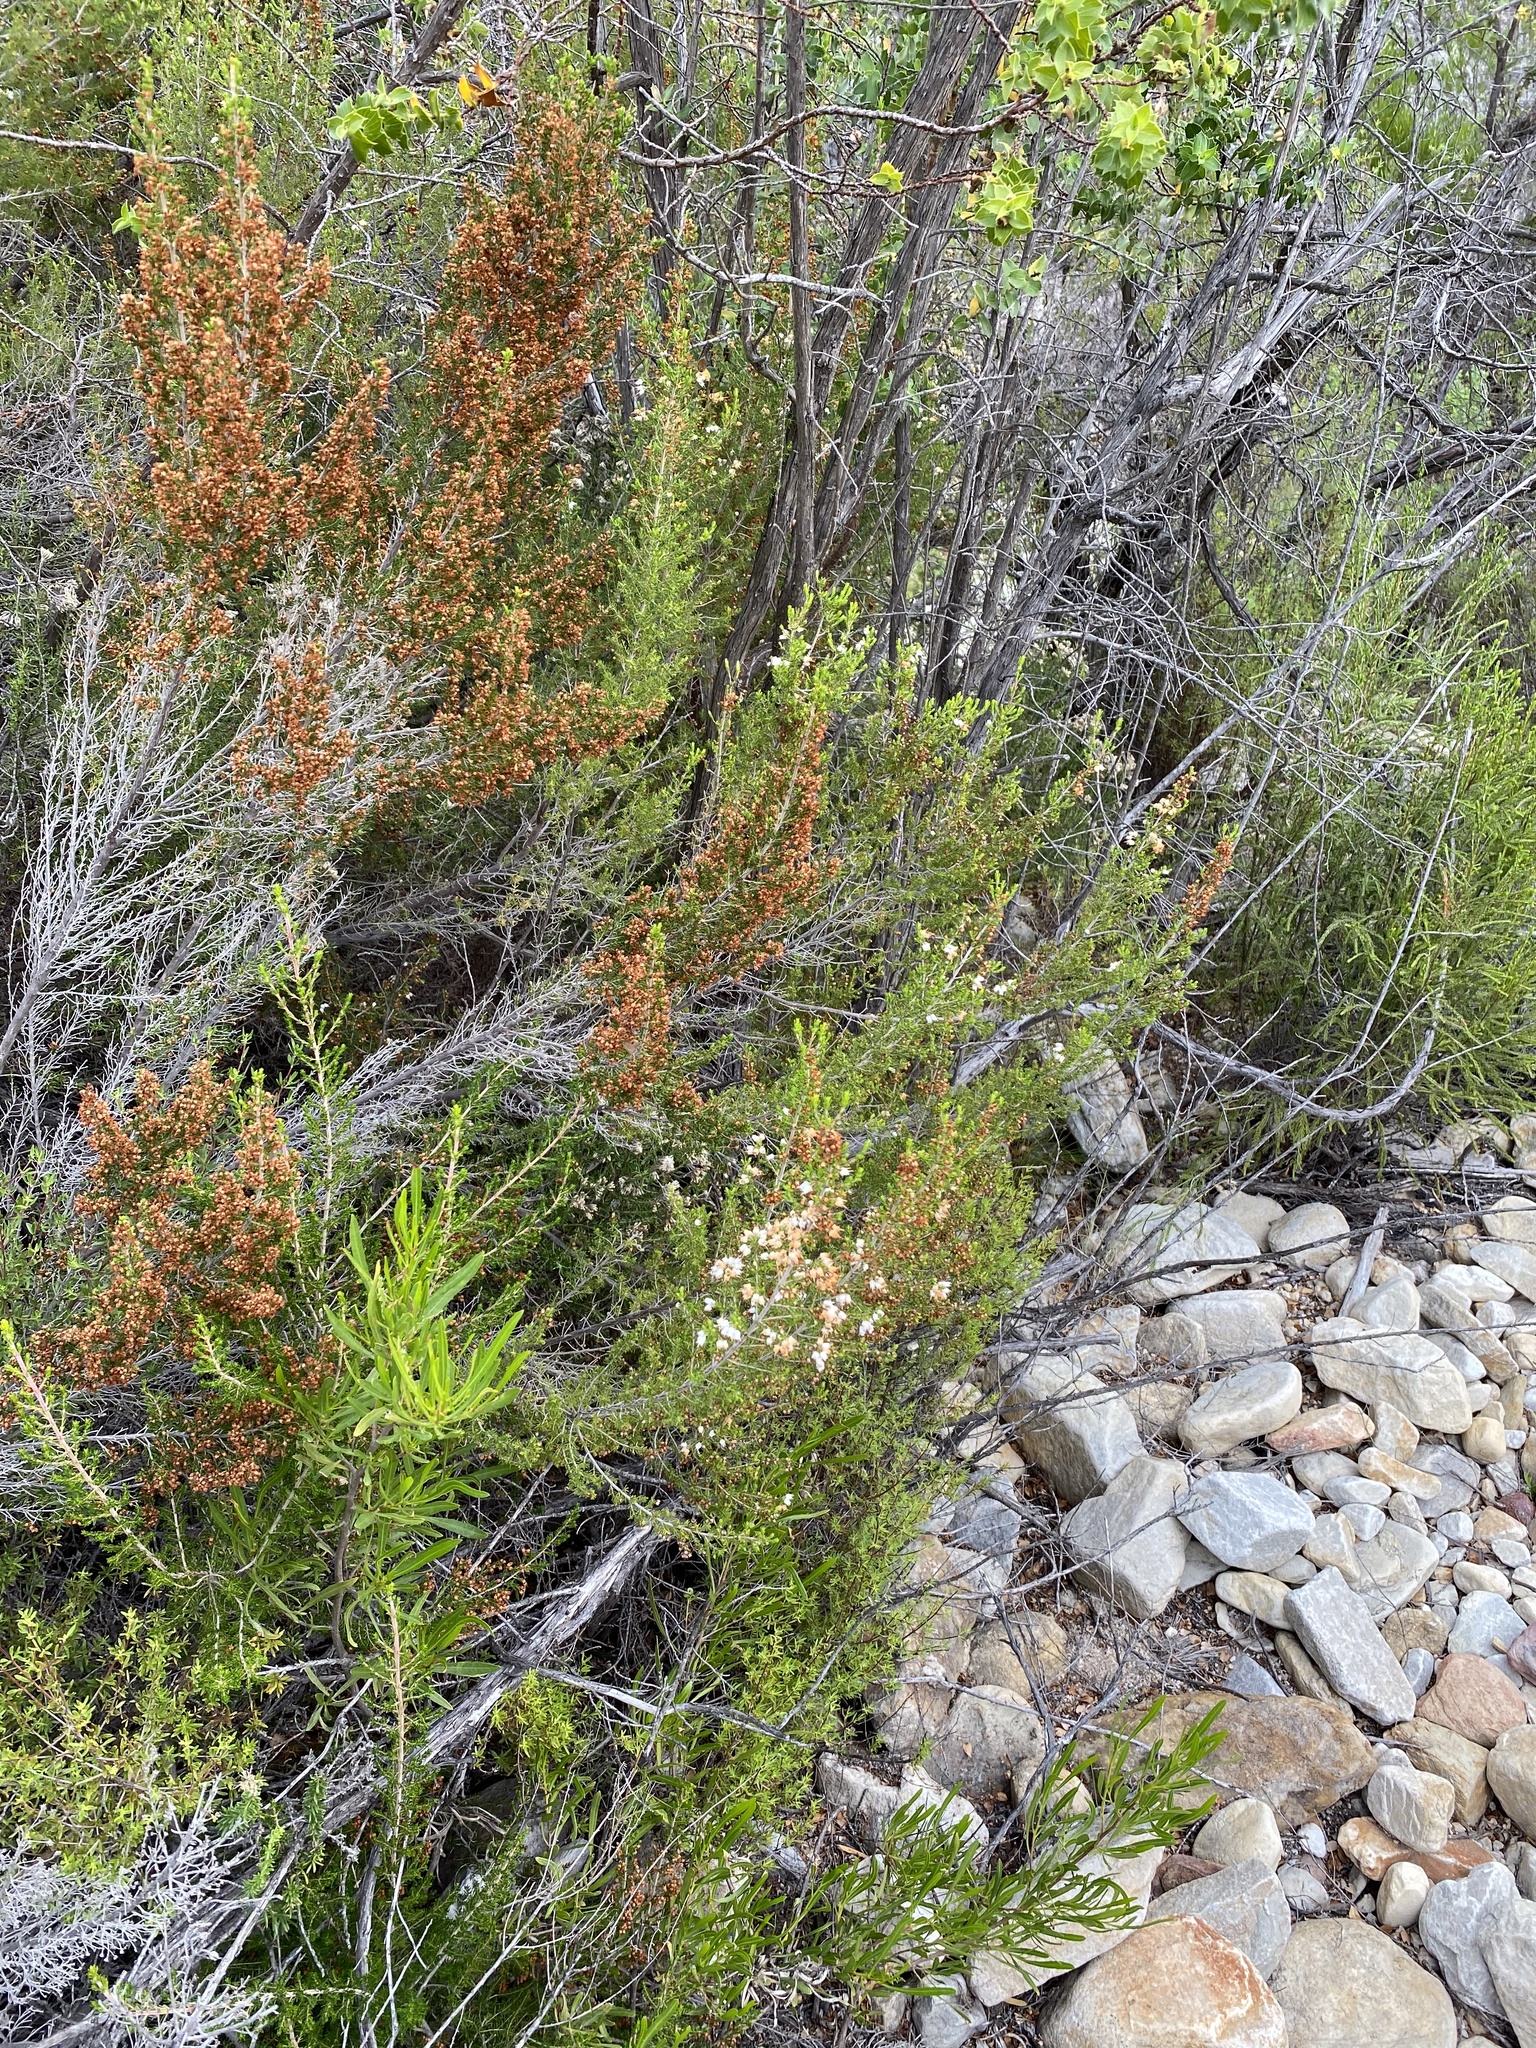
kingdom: Plantae
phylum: Tracheophyta
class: Magnoliopsida
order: Ericales
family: Ericaceae
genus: Erica
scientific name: Erica demissa
